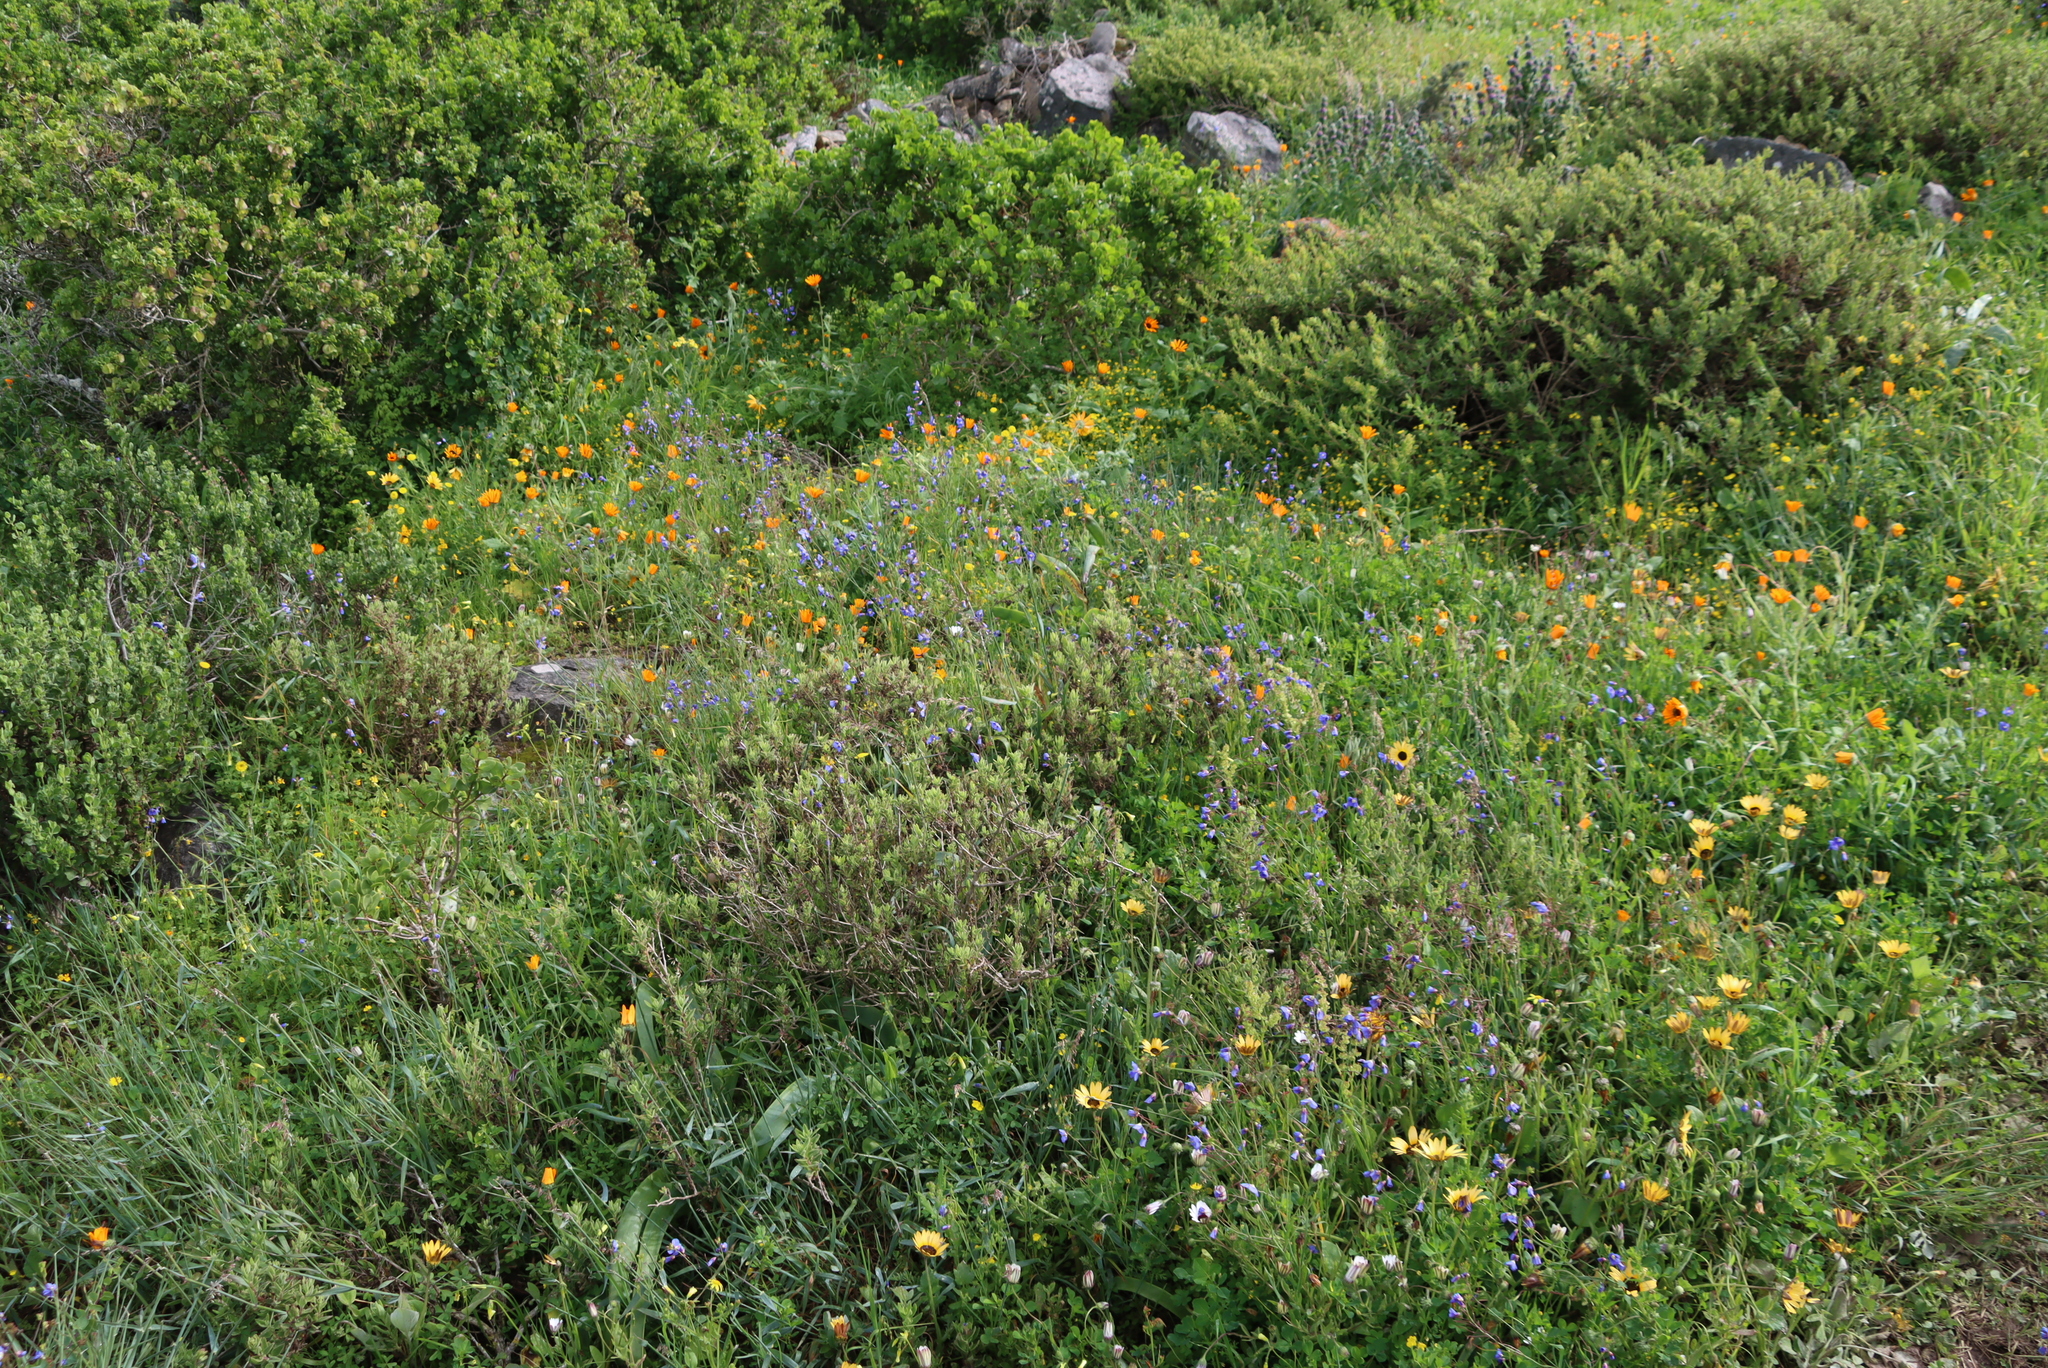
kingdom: Plantae
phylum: Tracheophyta
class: Magnoliopsida
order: Brassicales
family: Brassicaceae
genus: Heliophila
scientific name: Heliophila coronopifolia
